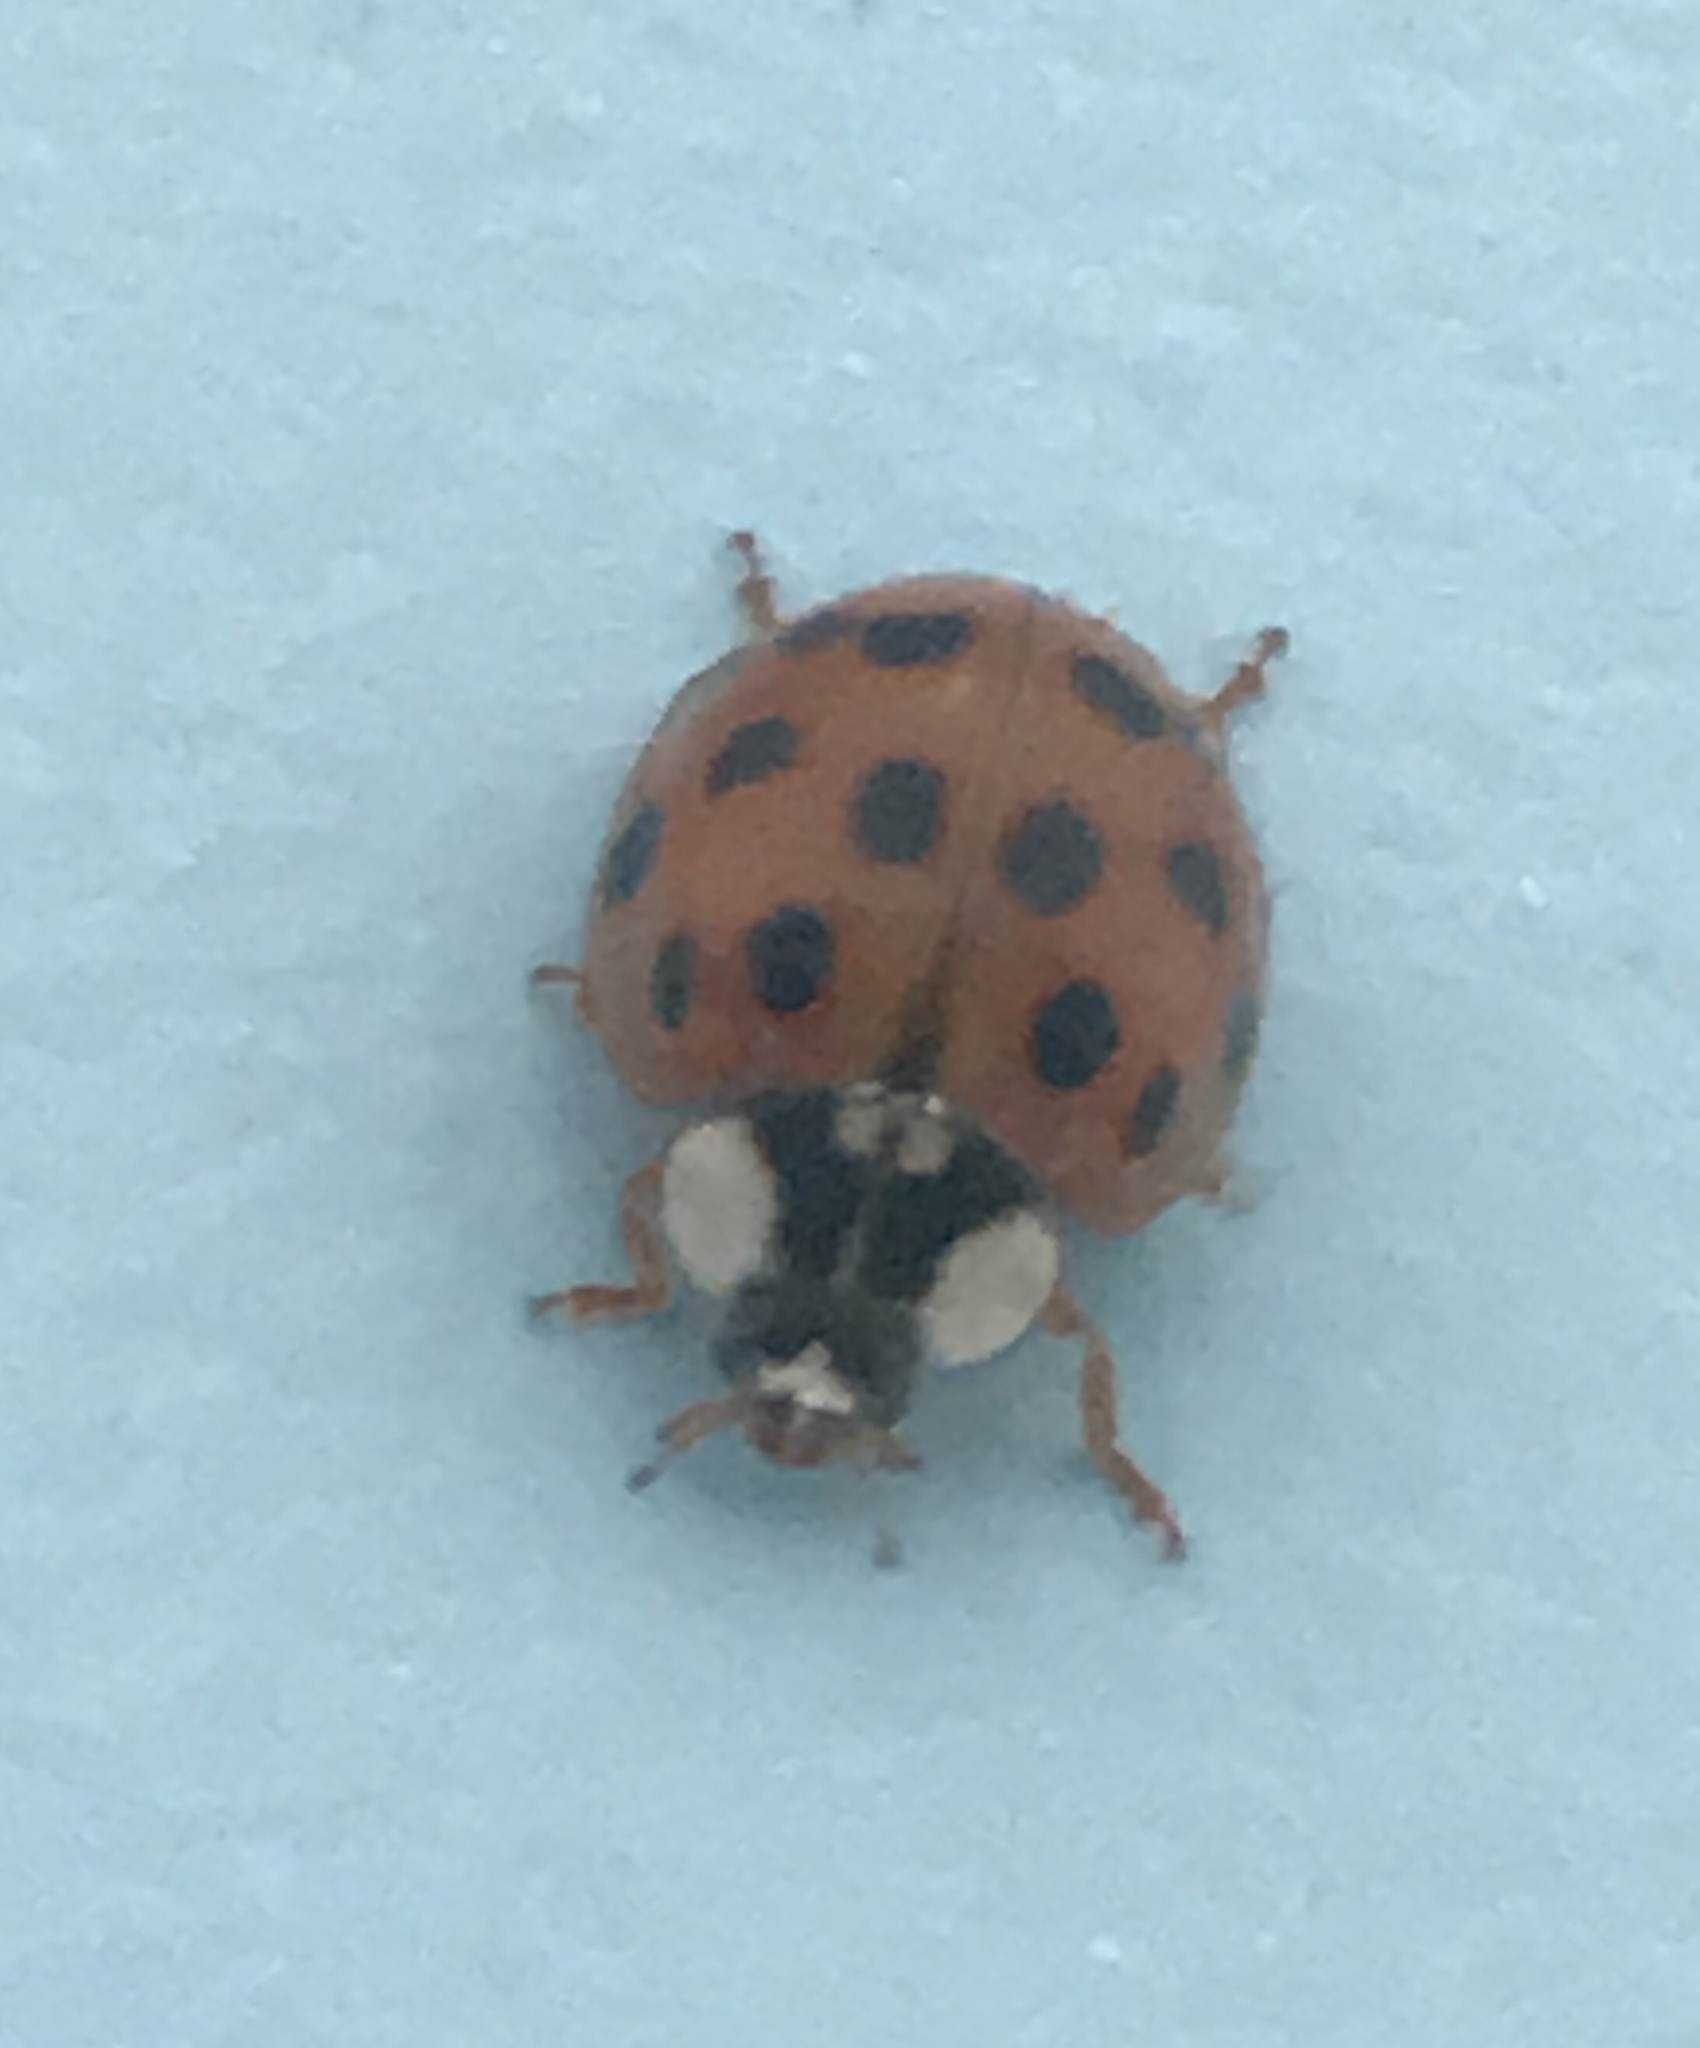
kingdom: Animalia
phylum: Arthropoda
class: Insecta
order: Coleoptera
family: Coccinellidae
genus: Harmonia
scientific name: Harmonia axyridis
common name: Harlequin ladybird
